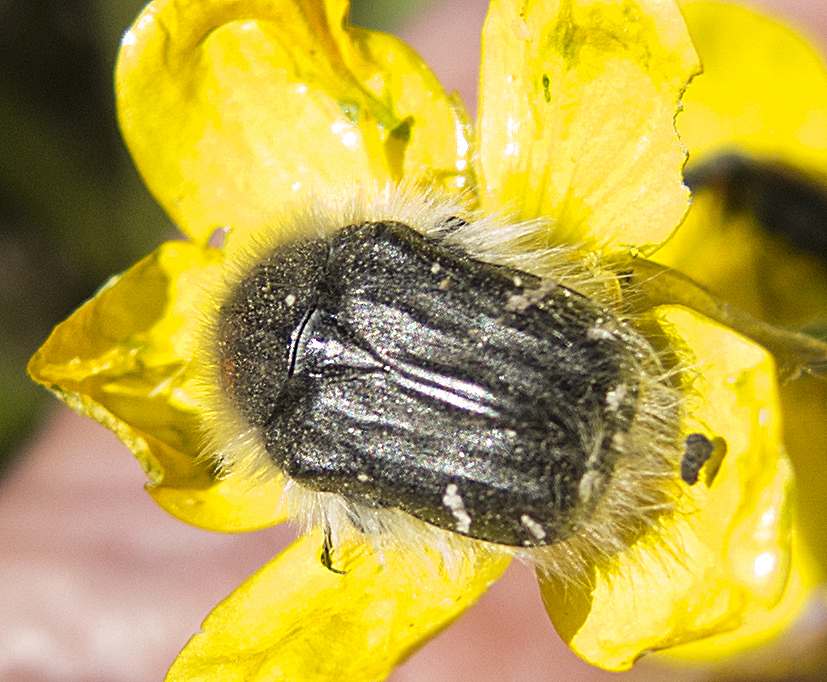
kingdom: Animalia
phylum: Arthropoda
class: Insecta
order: Coleoptera
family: Scarabaeidae
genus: Tropinota
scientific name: Tropinota hirta
